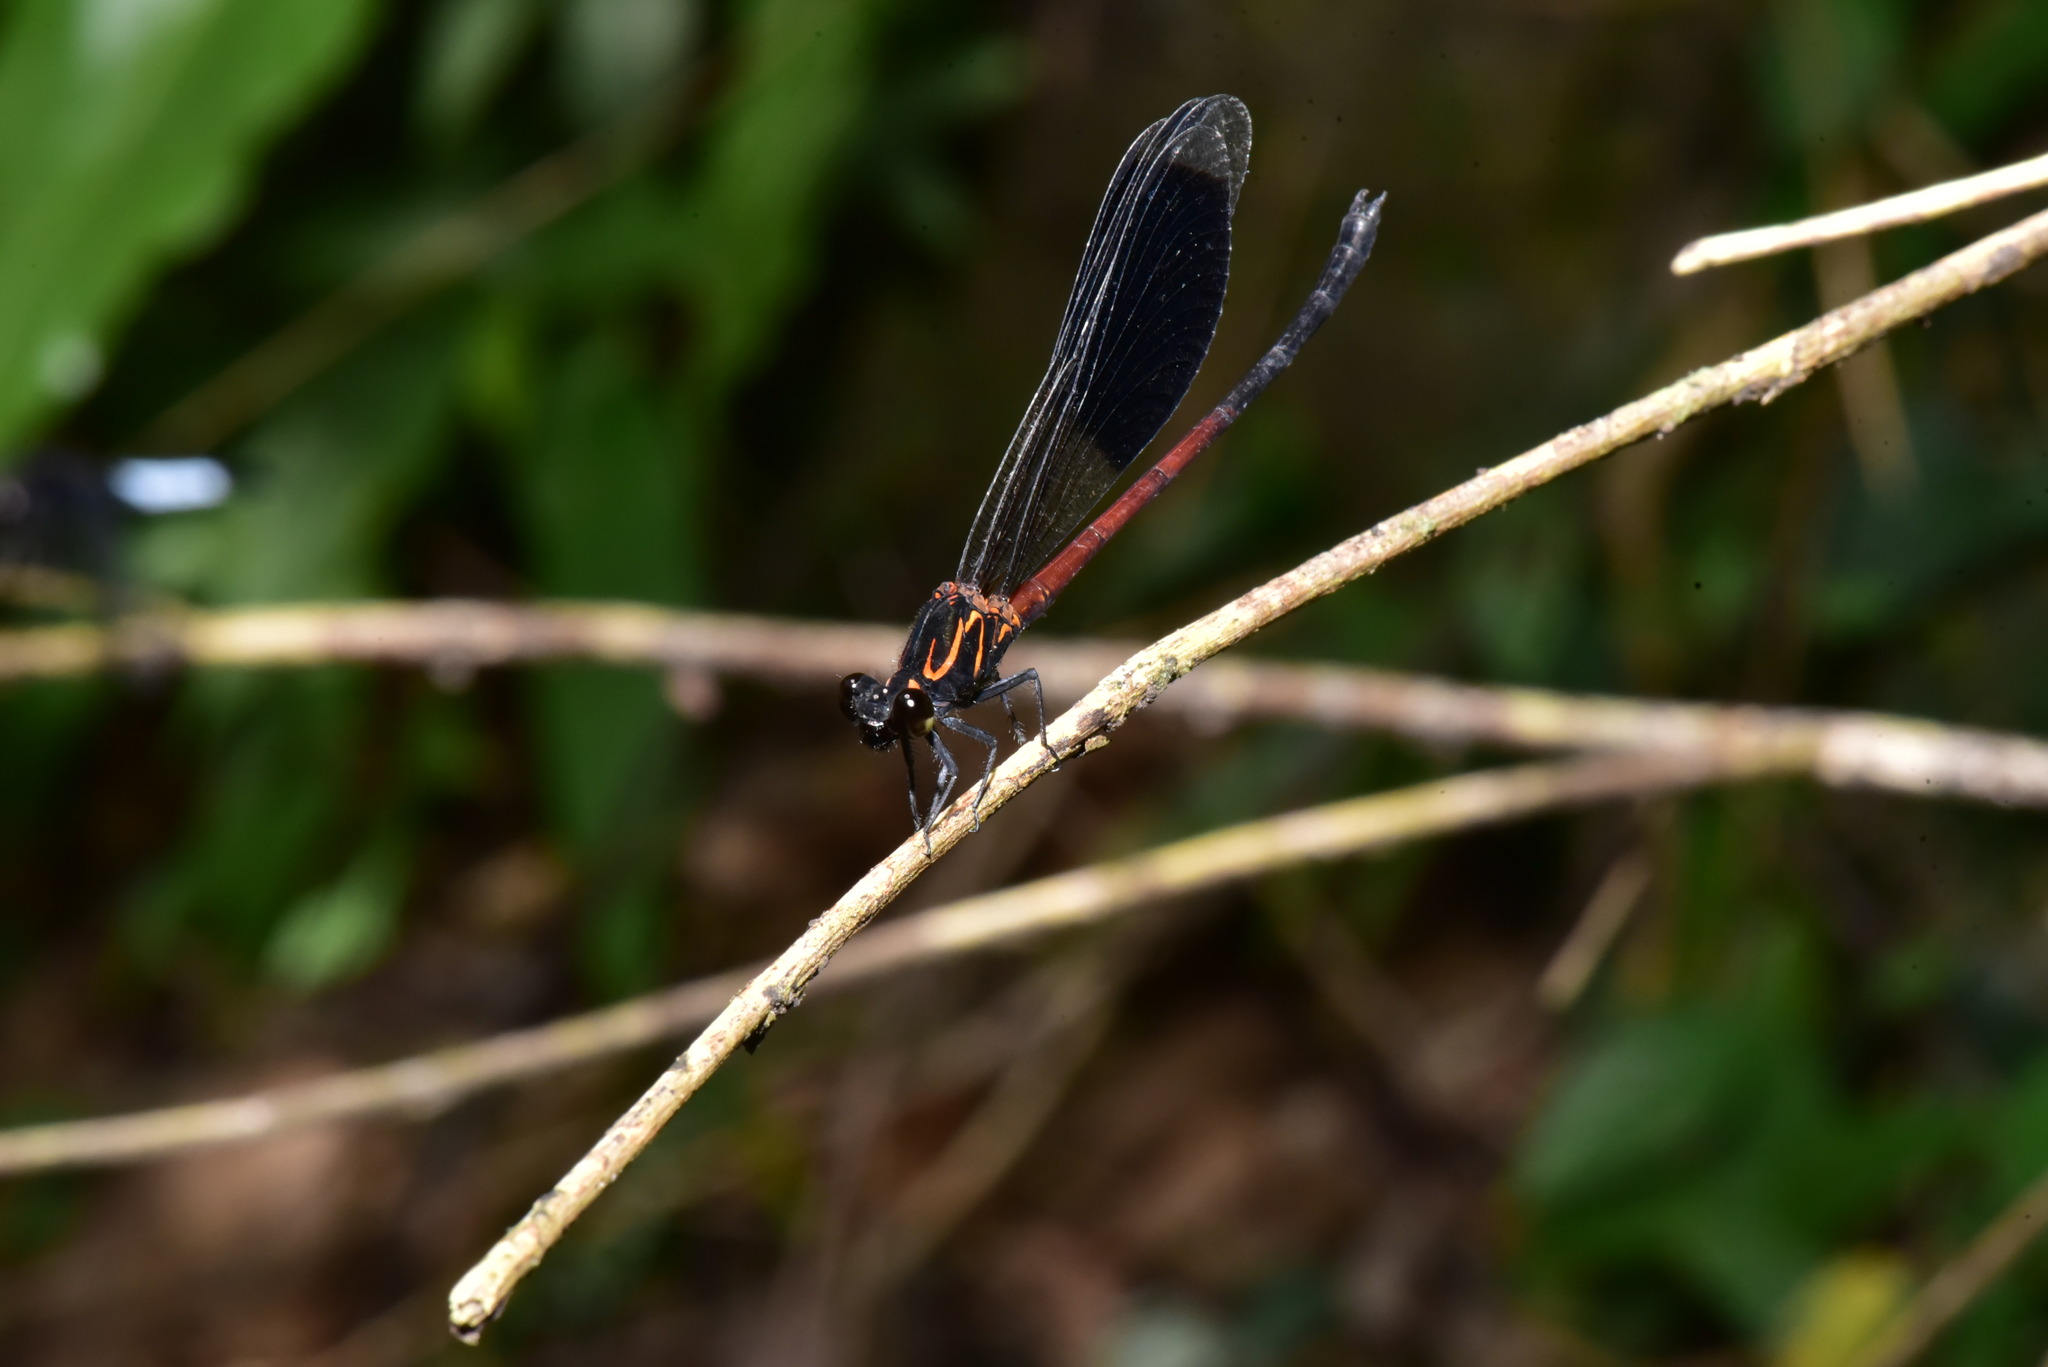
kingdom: Animalia
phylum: Arthropoda
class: Insecta
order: Odonata
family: Euphaeidae
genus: Euphaea
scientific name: Euphaea formosa
